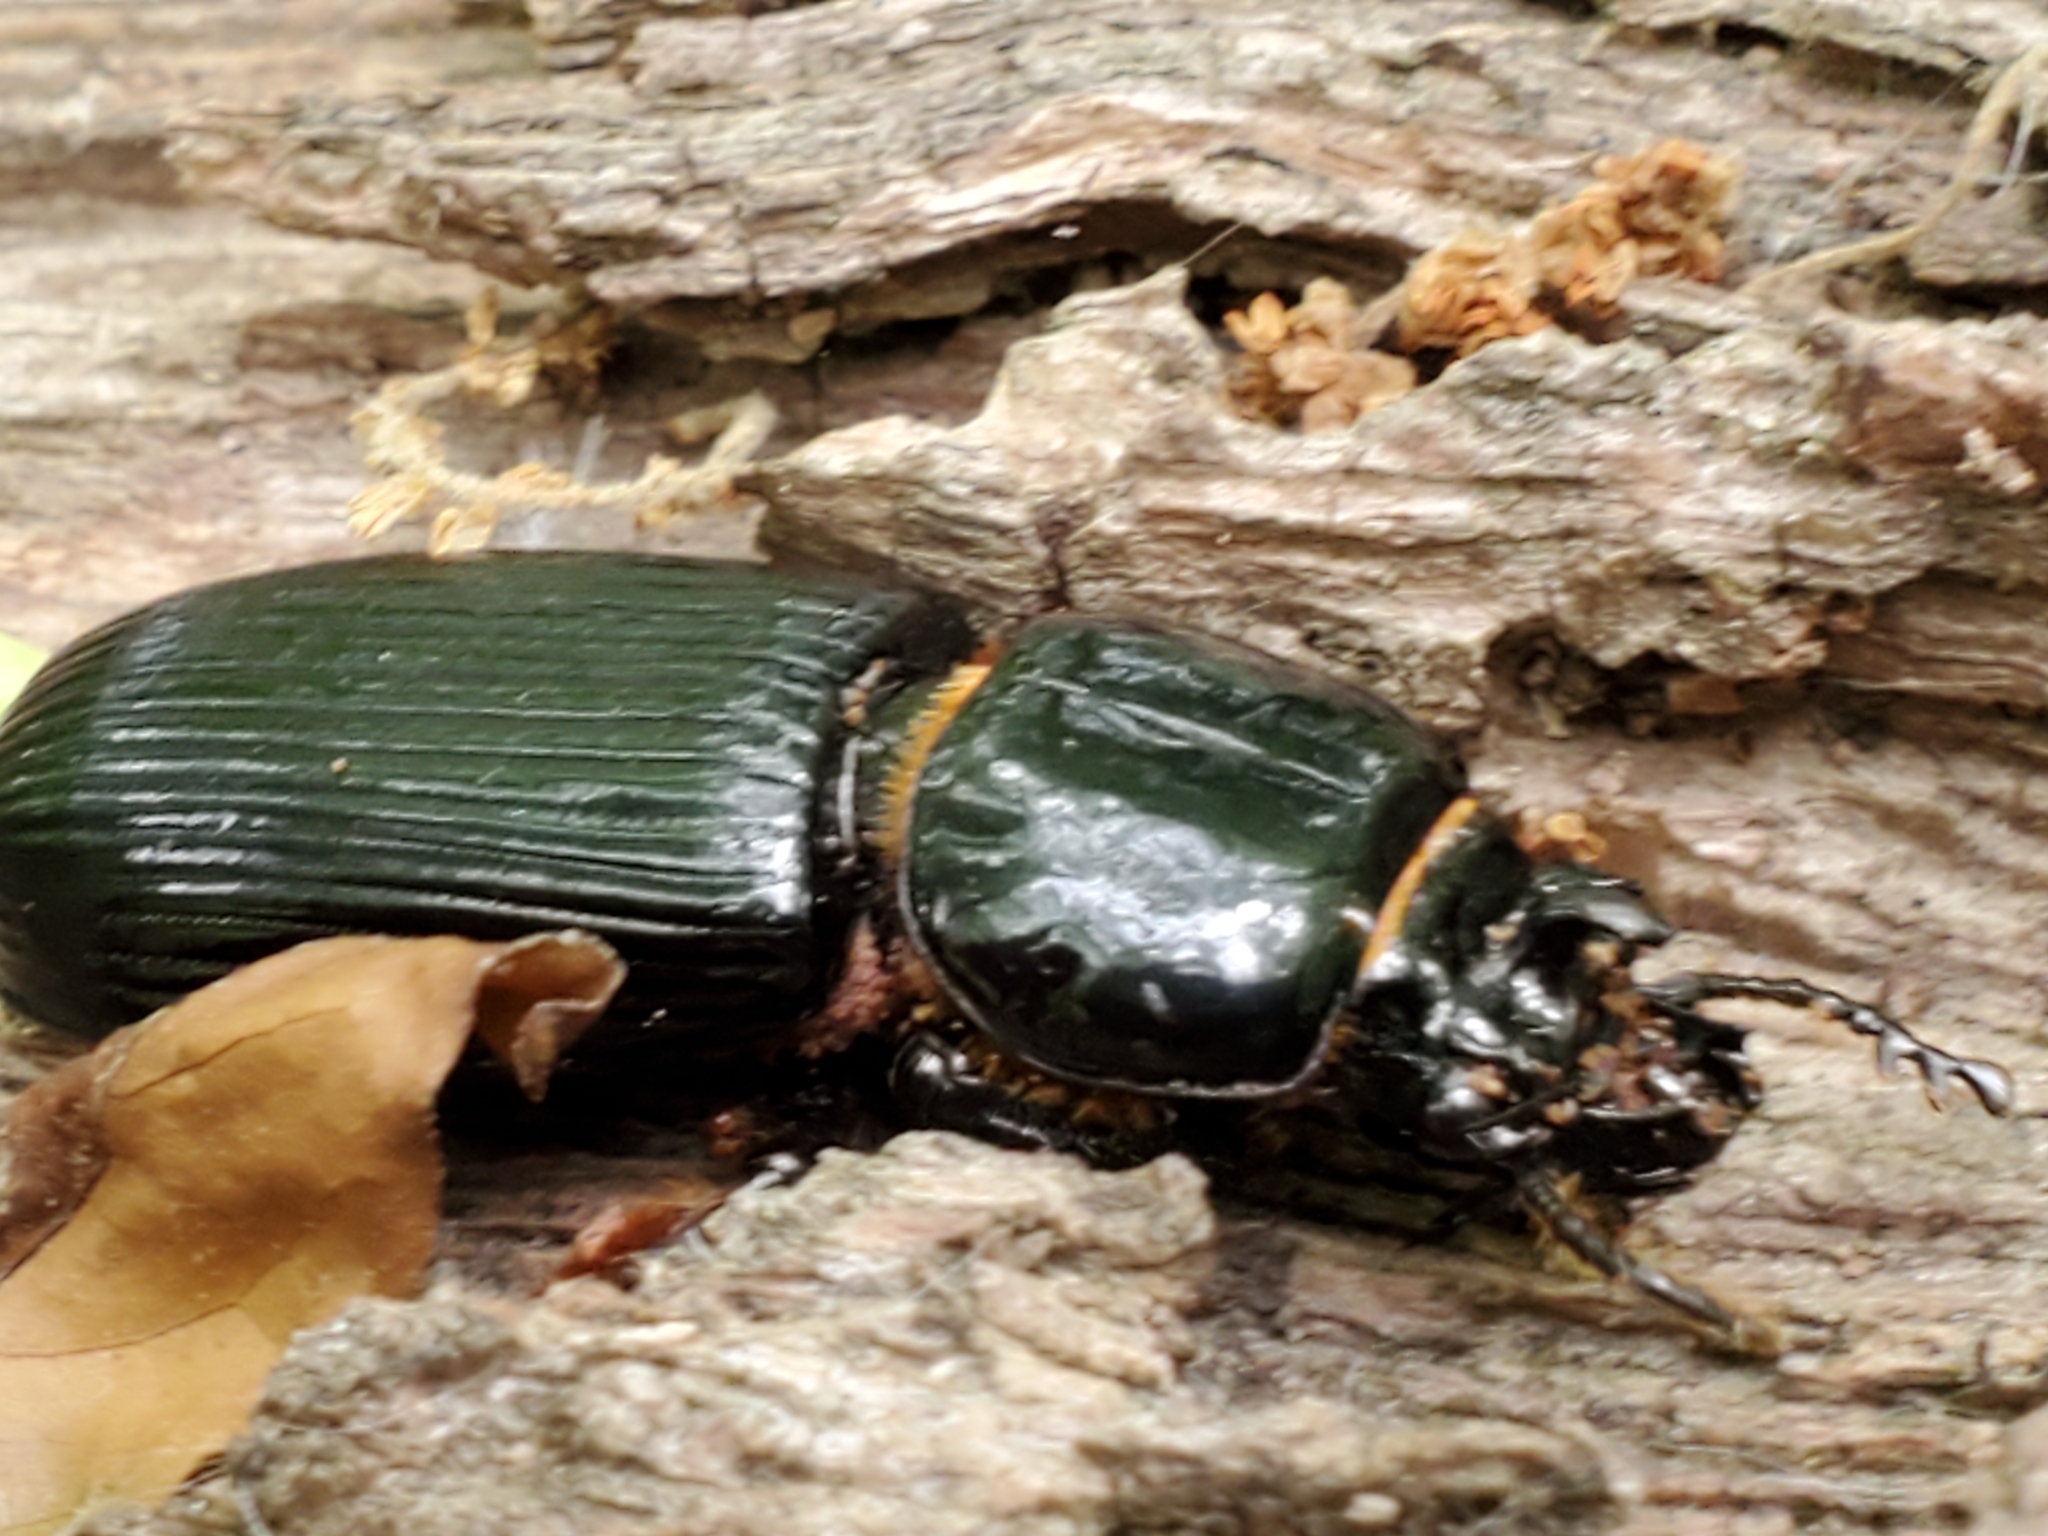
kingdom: Animalia
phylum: Arthropoda
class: Insecta
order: Coleoptera
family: Passalidae
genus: Odontotaenius
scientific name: Odontotaenius disjunctus
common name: Patent leather beetle
